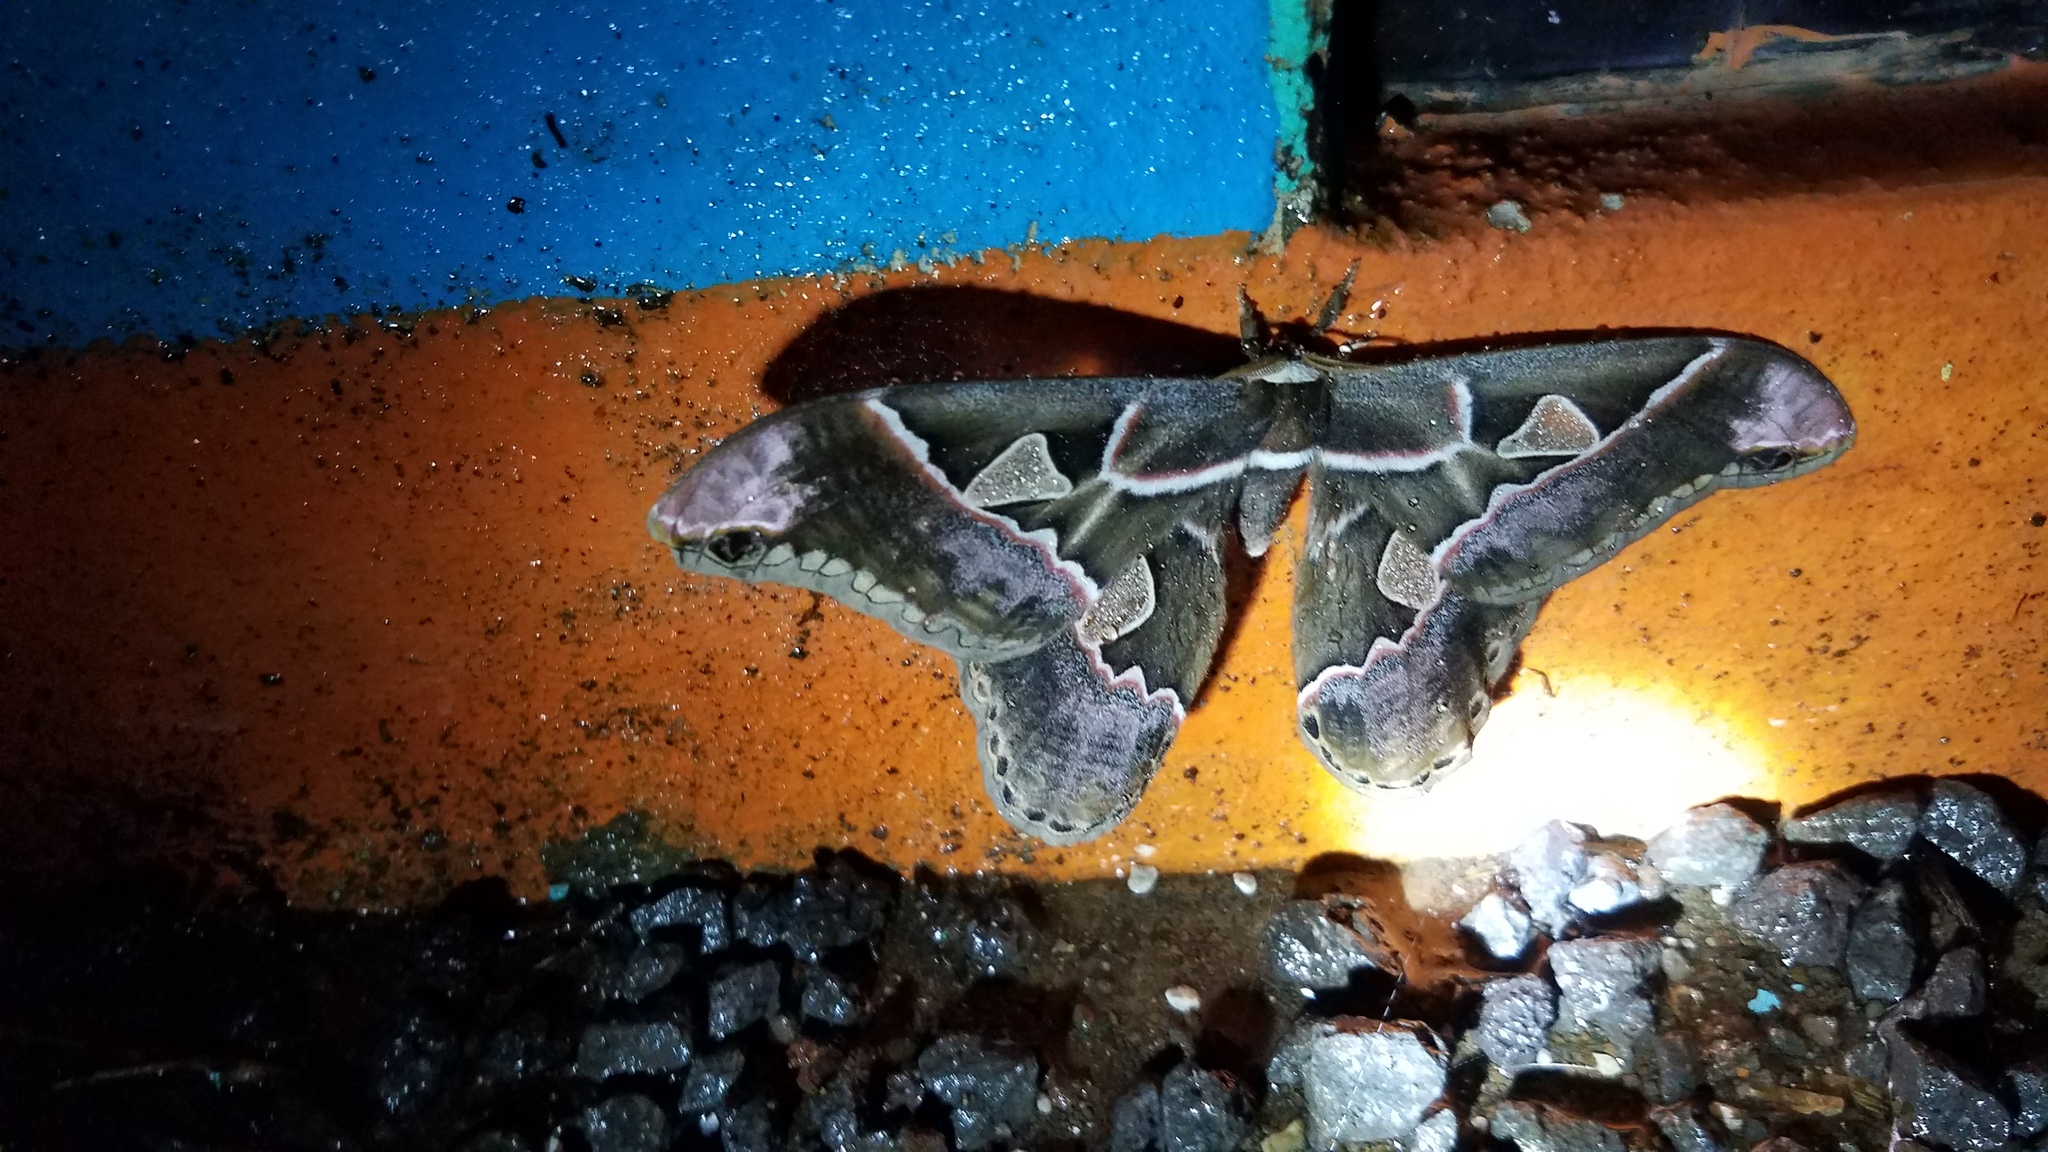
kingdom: Animalia
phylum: Arthropoda
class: Insecta
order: Lepidoptera
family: Saturniidae
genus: Rothschildia
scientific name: Rothschildia lebeau
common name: Lebeau's rothschildia
